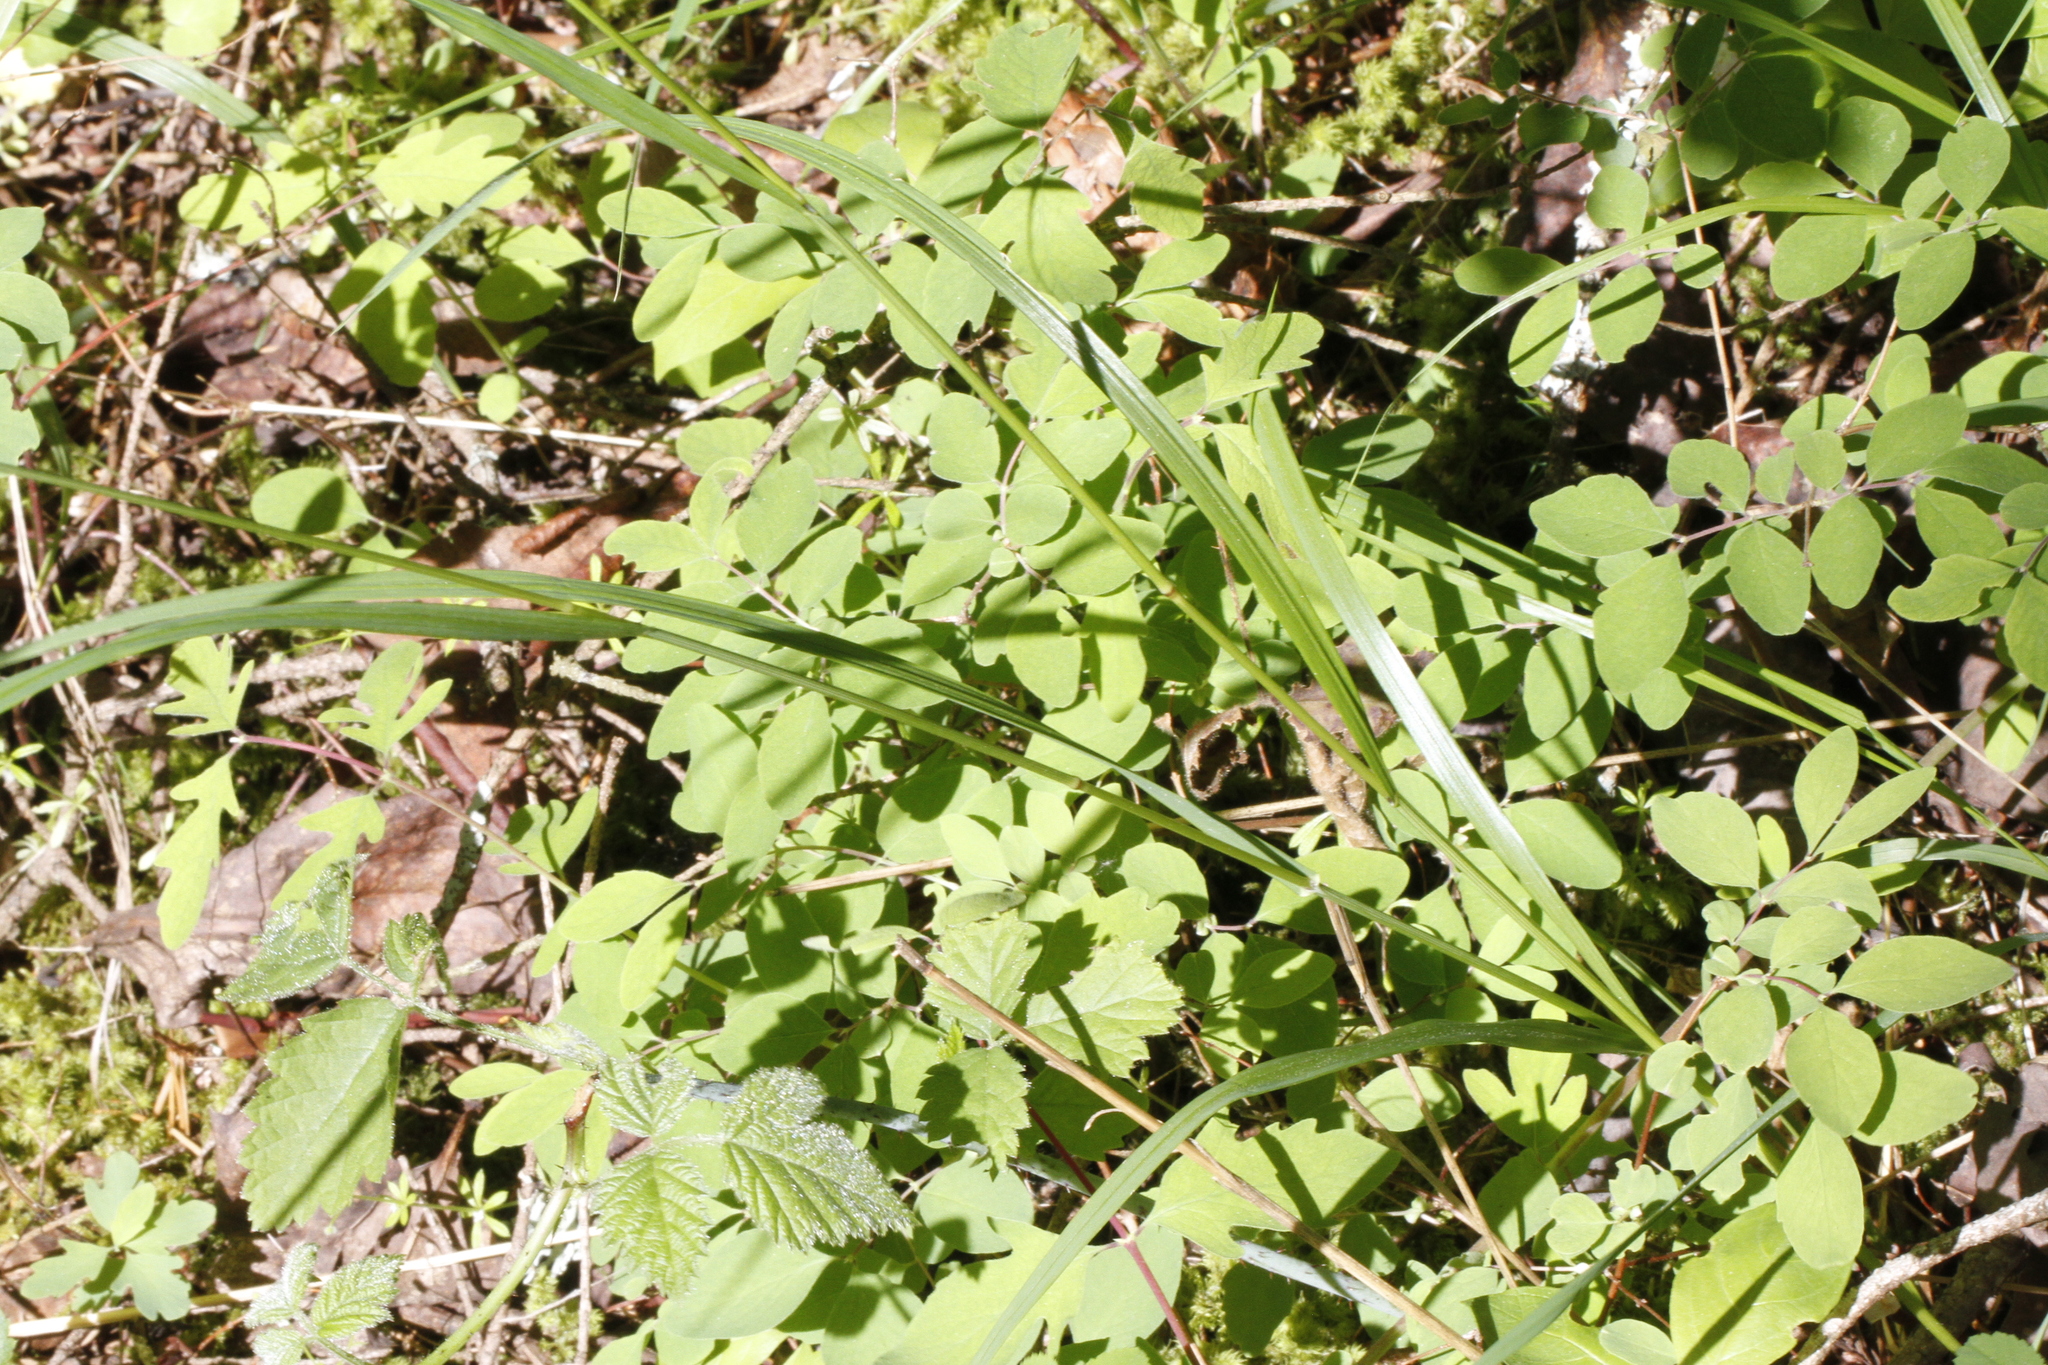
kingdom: Plantae
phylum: Tracheophyta
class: Liliopsida
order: Poales
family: Poaceae
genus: Melica
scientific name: Melica subulata
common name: Tapered oniongrass
